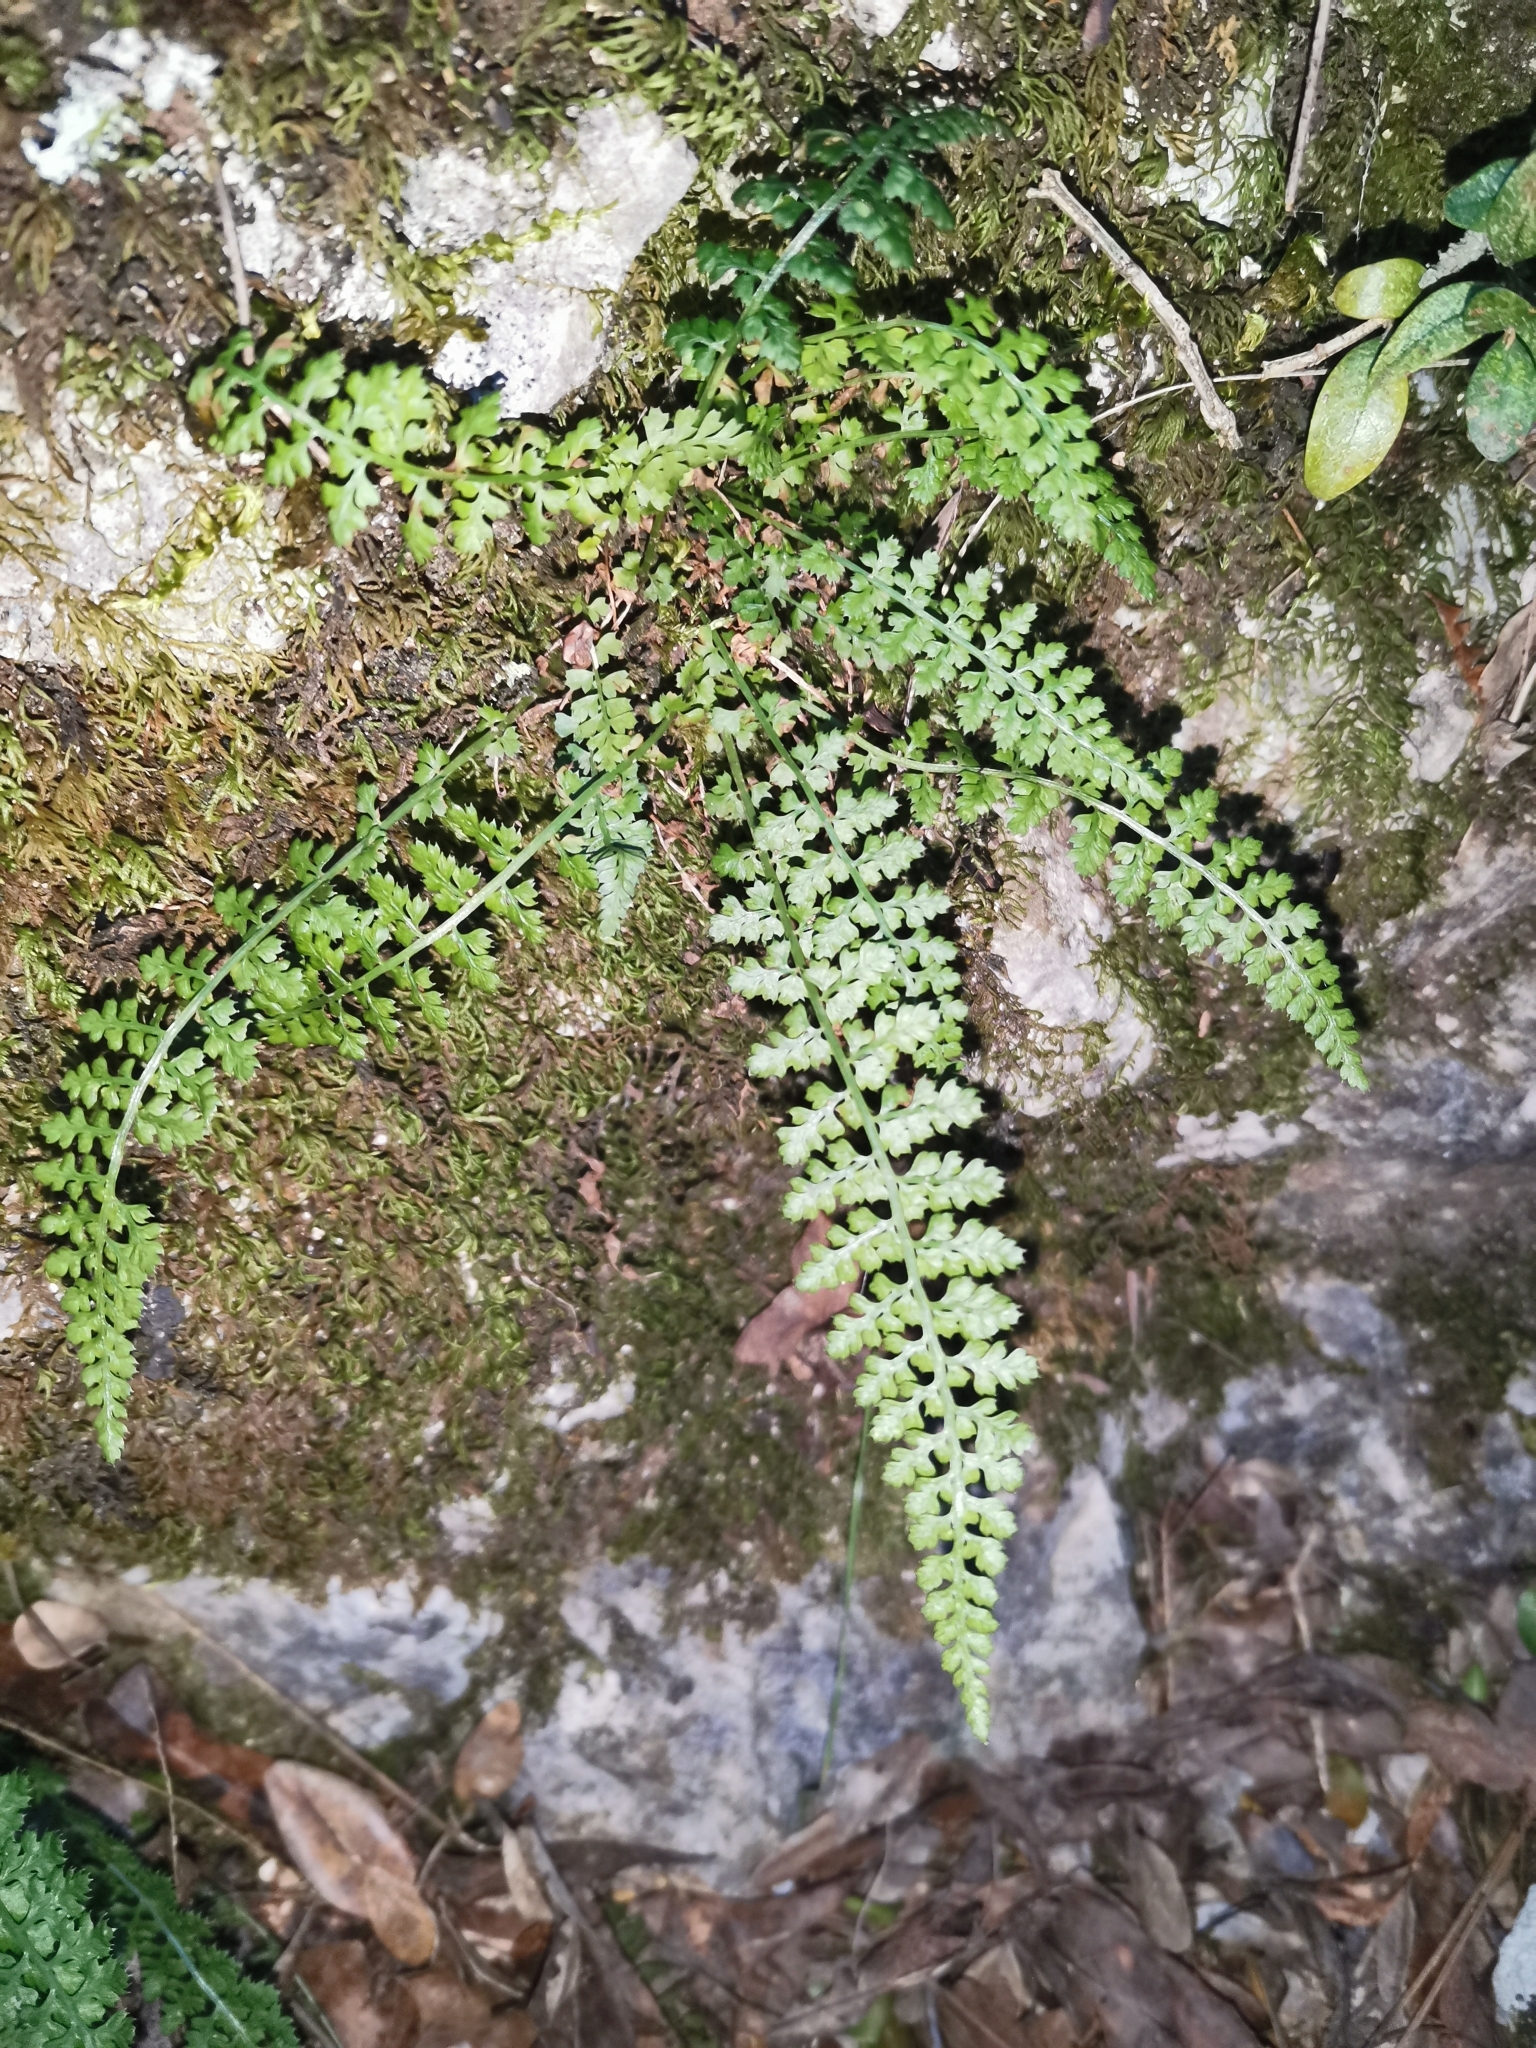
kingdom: Plantae
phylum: Tracheophyta
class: Polypodiopsida
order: Polypodiales
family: Aspleniaceae
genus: Asplenium
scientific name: Asplenium fontanum
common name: Fountain spleenwort
